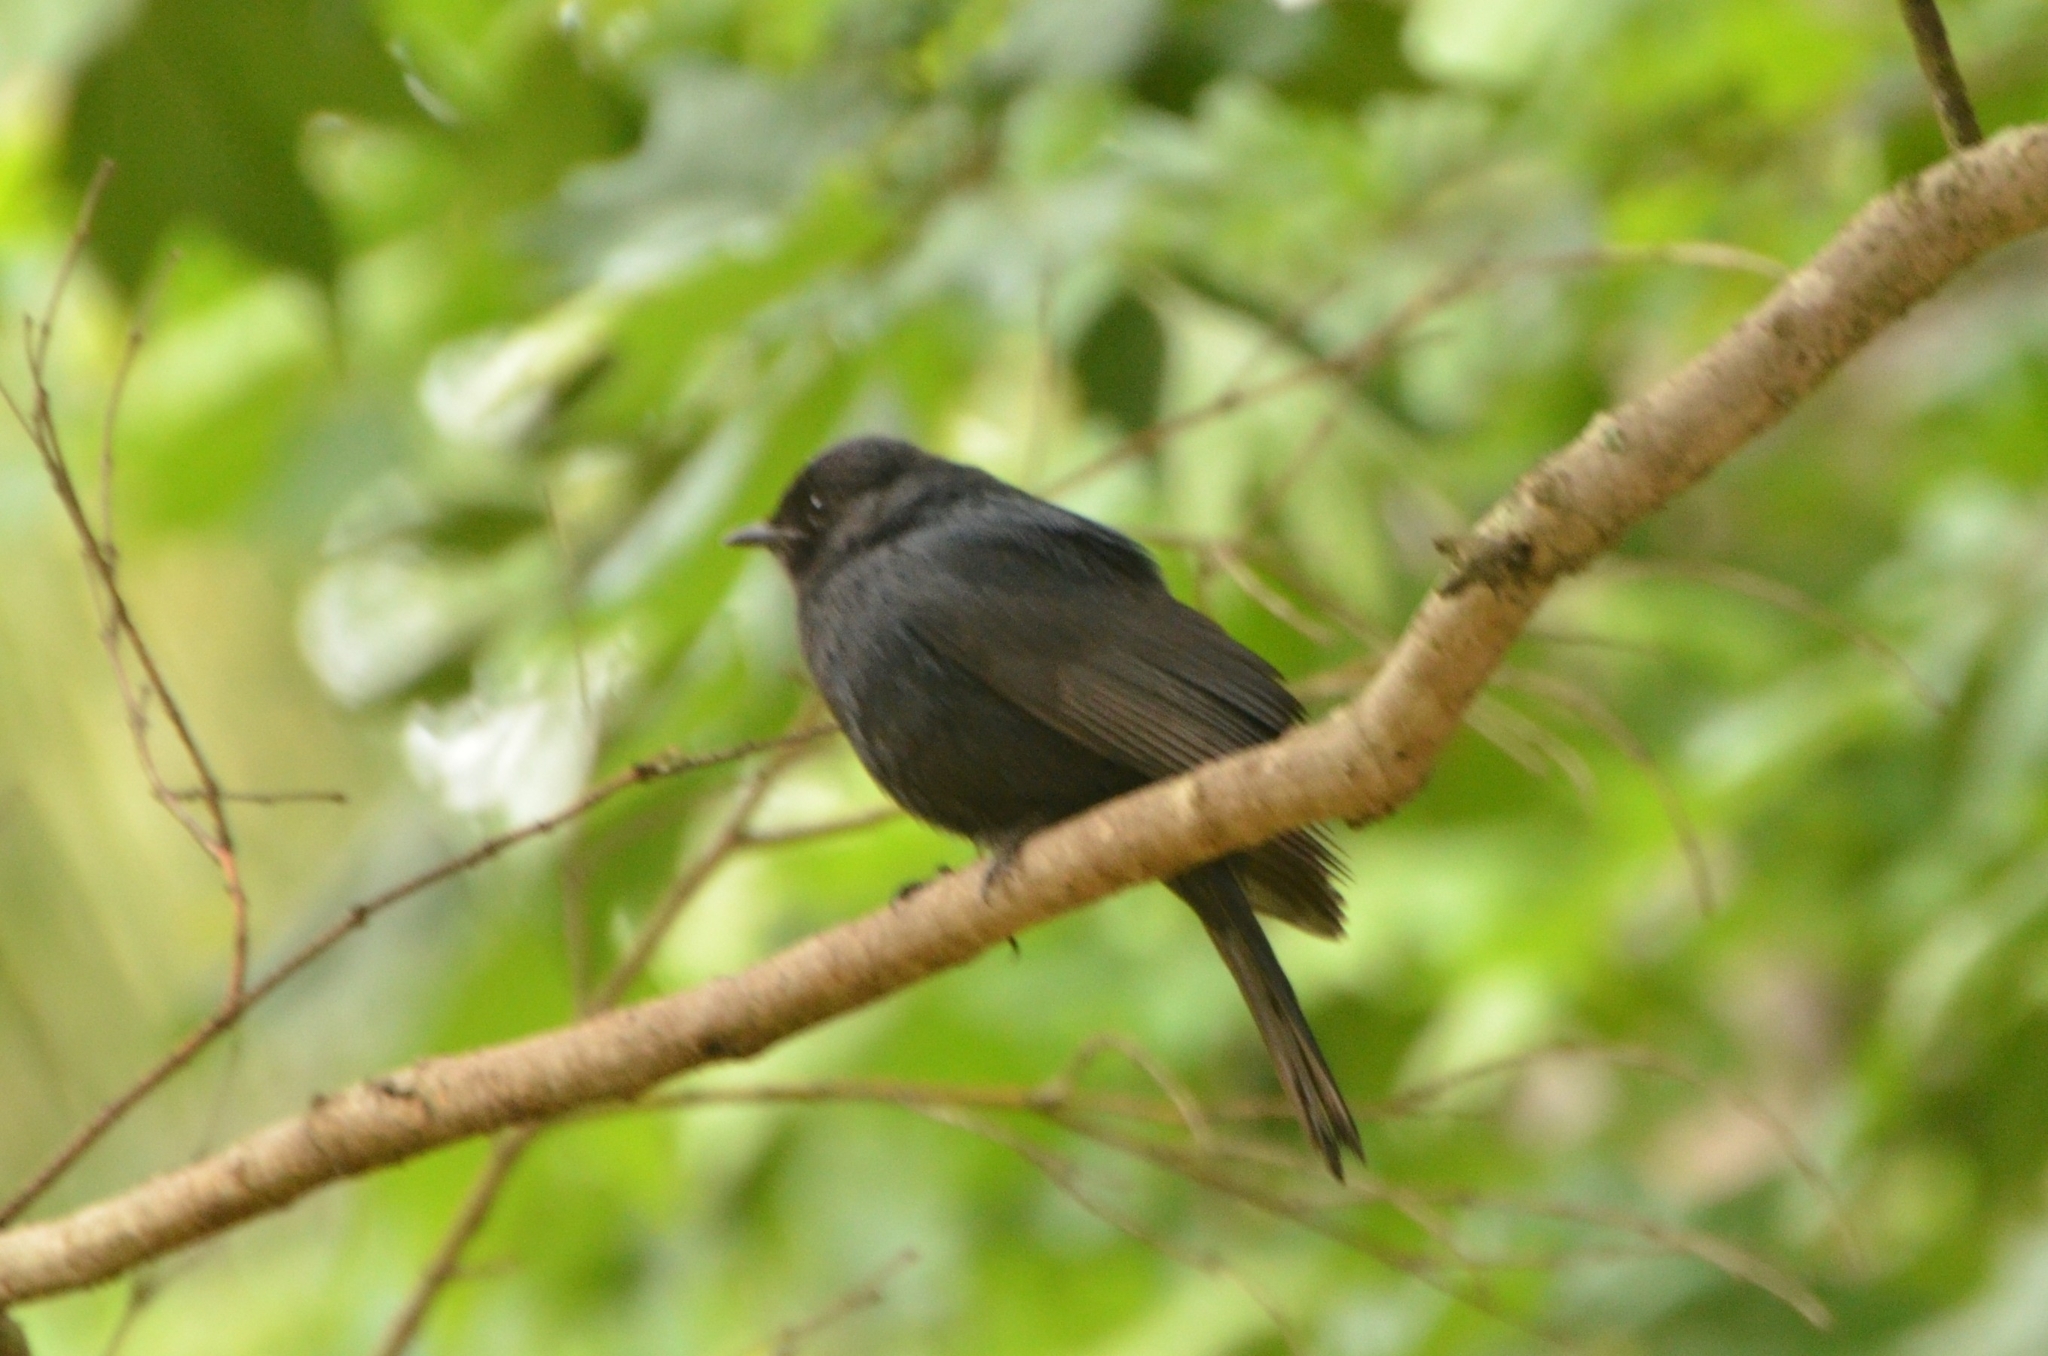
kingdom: Animalia
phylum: Chordata
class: Aves
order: Passeriformes
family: Muscicapidae
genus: Melaenornis
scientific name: Melaenornis pammelaina
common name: Southern black flycatcher
